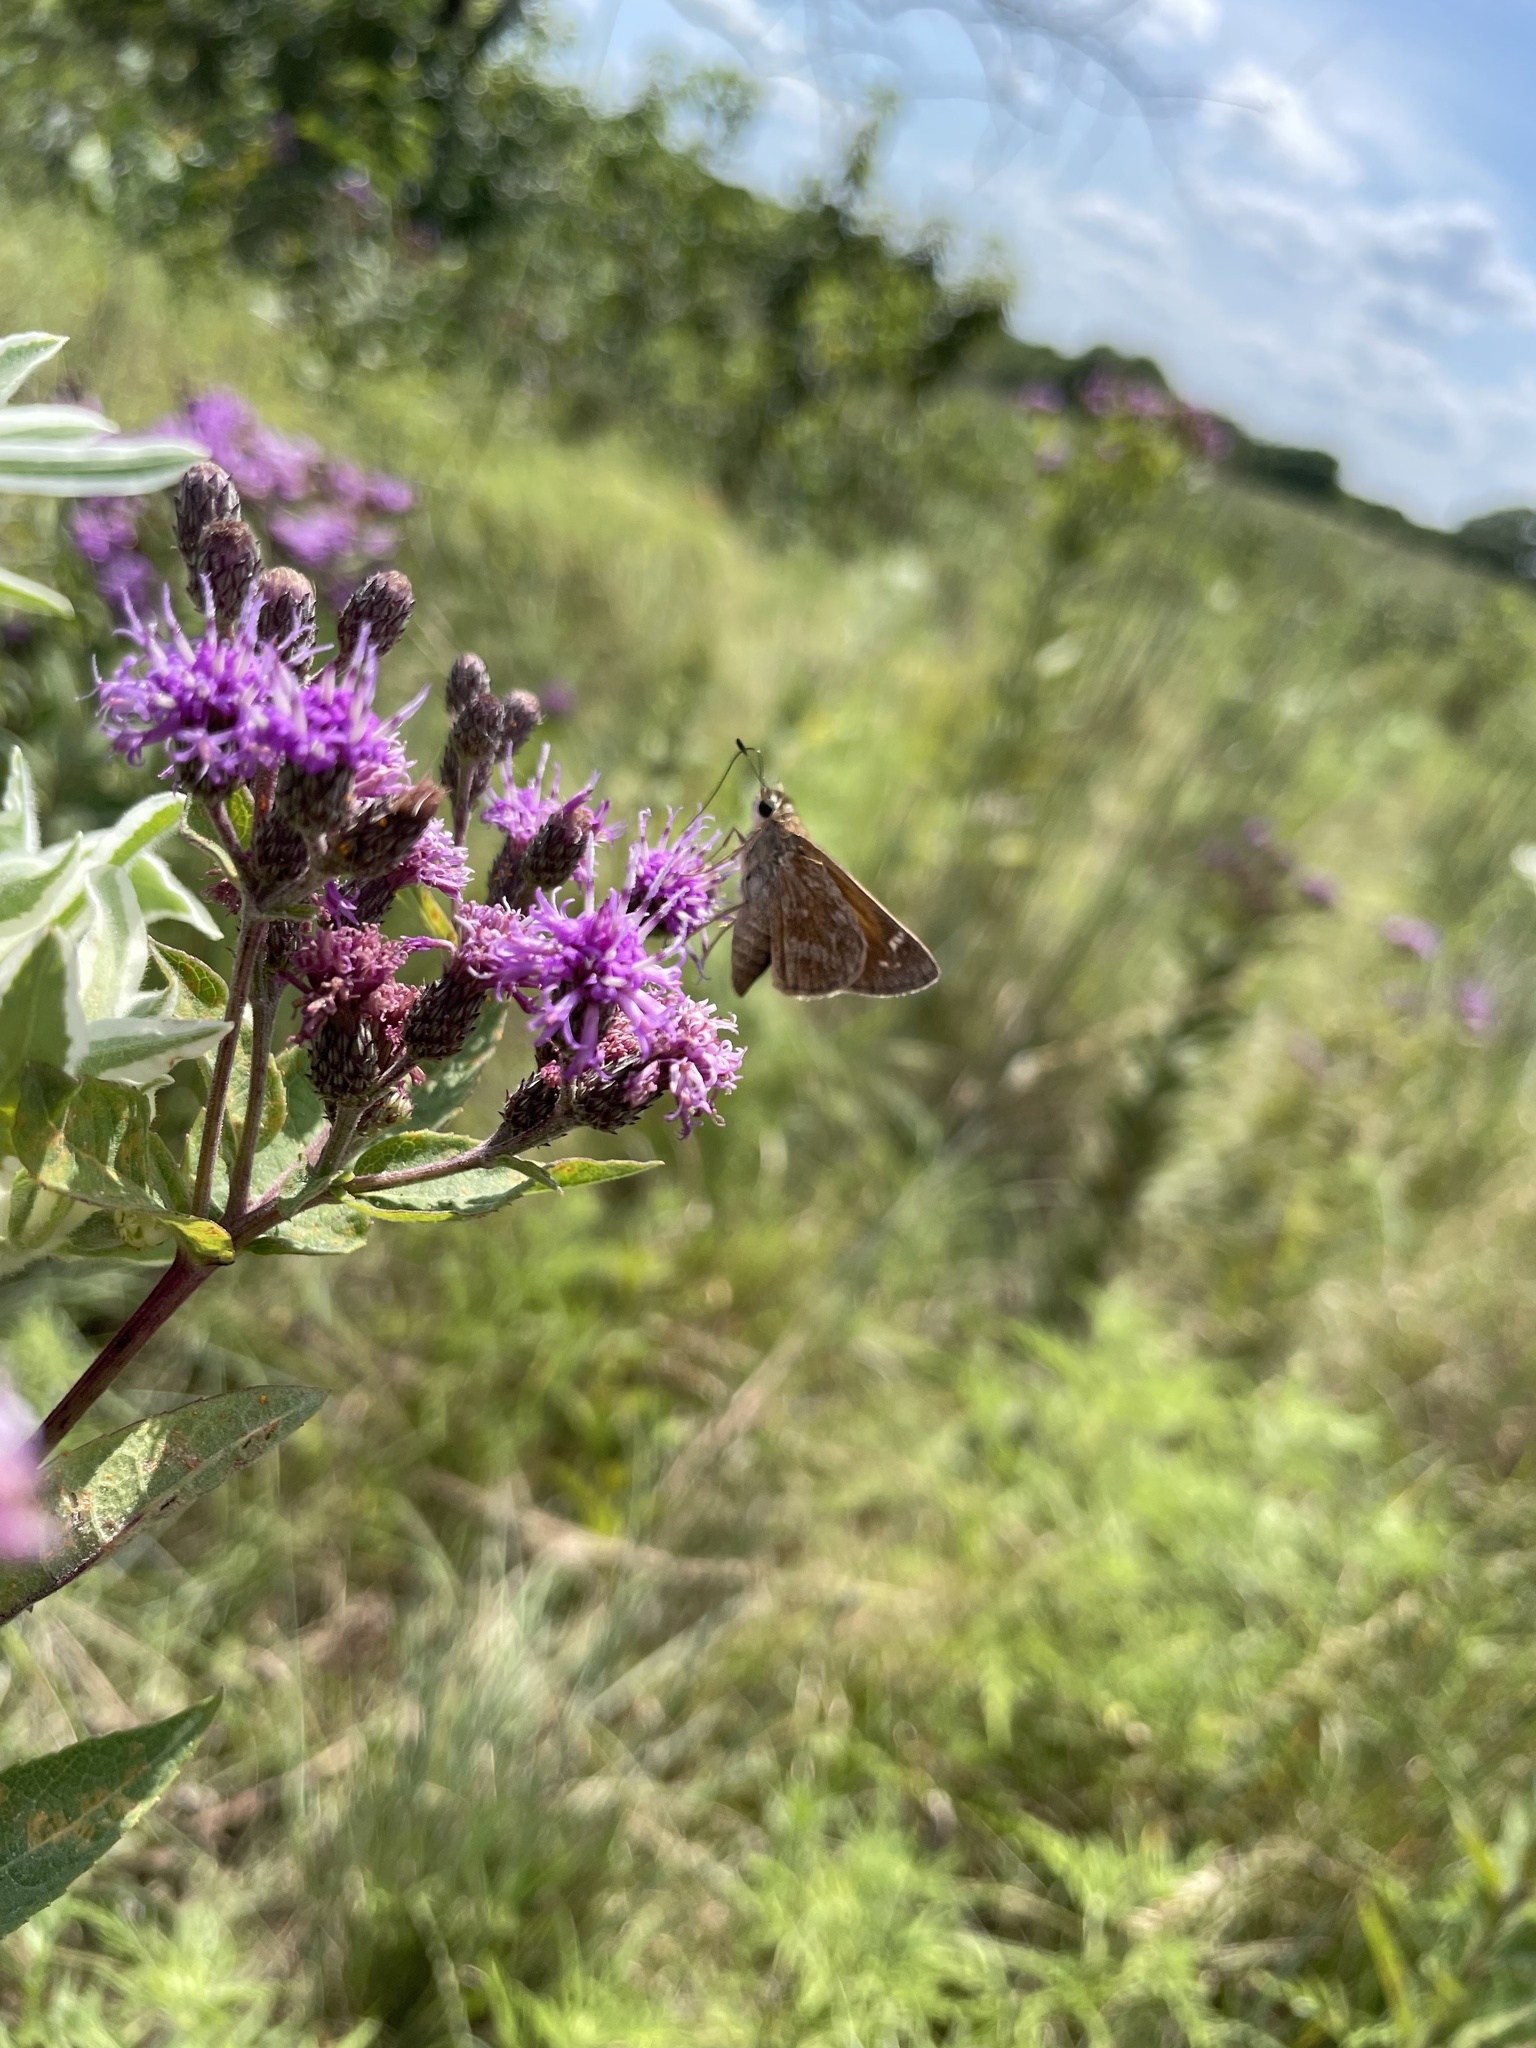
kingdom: Animalia
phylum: Arthropoda
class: Insecta
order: Lepidoptera
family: Hesperiidae
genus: Atalopedes
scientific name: Atalopedes
